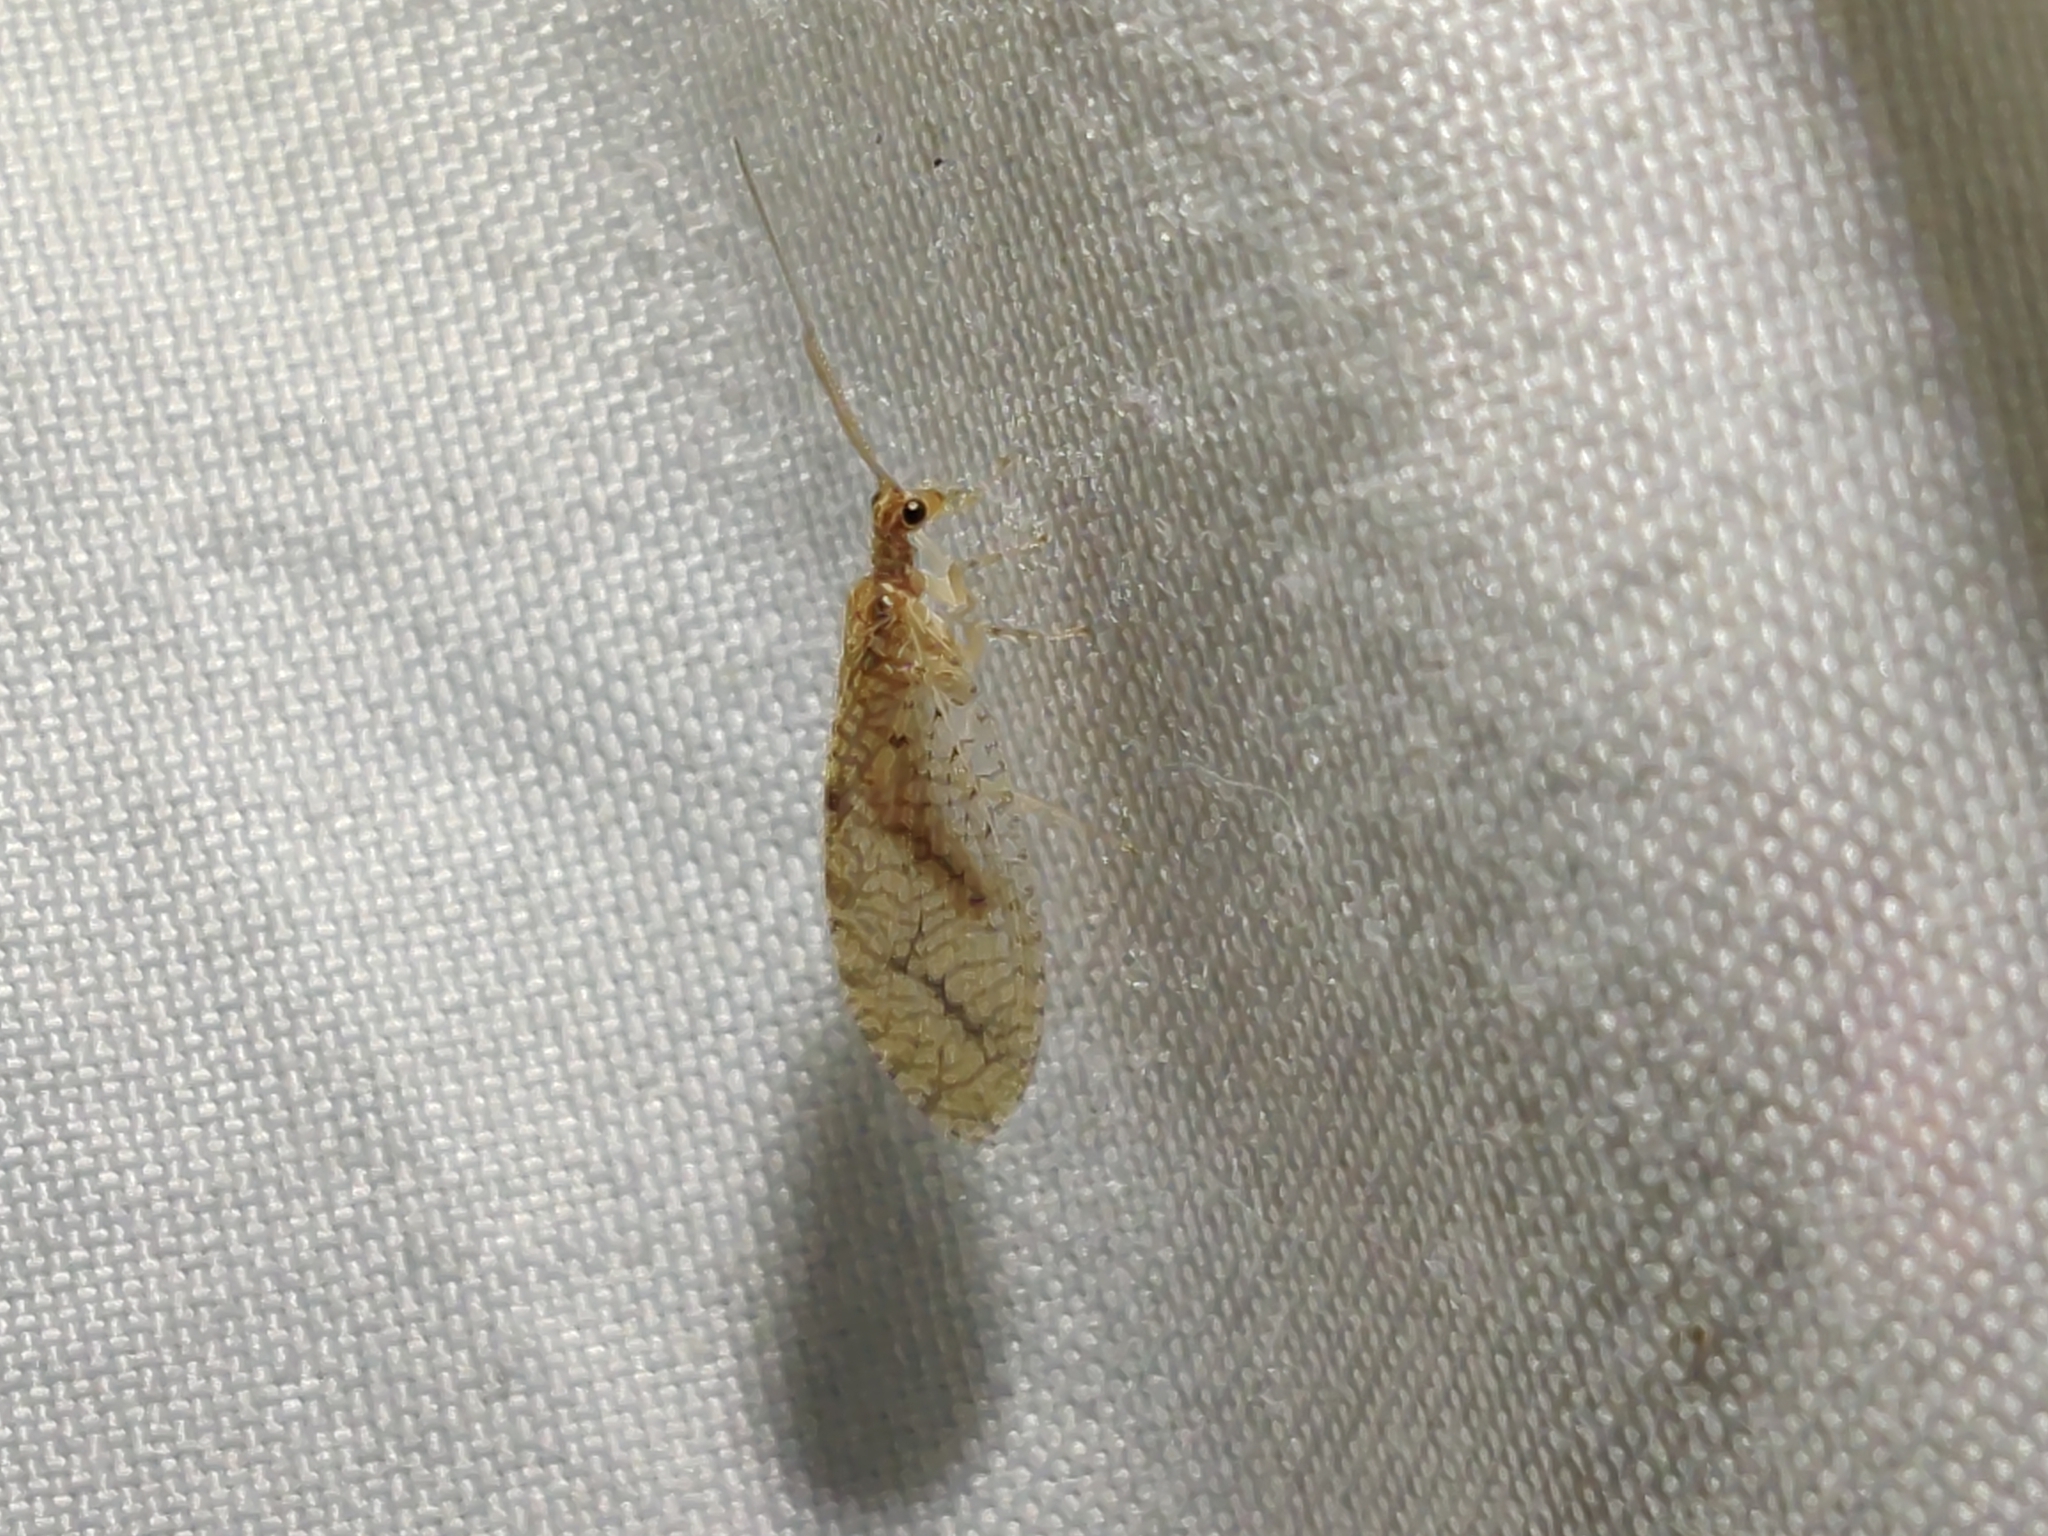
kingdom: Animalia
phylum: Arthropoda
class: Insecta
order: Neuroptera
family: Hemerobiidae
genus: Micromus
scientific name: Micromus posticus
